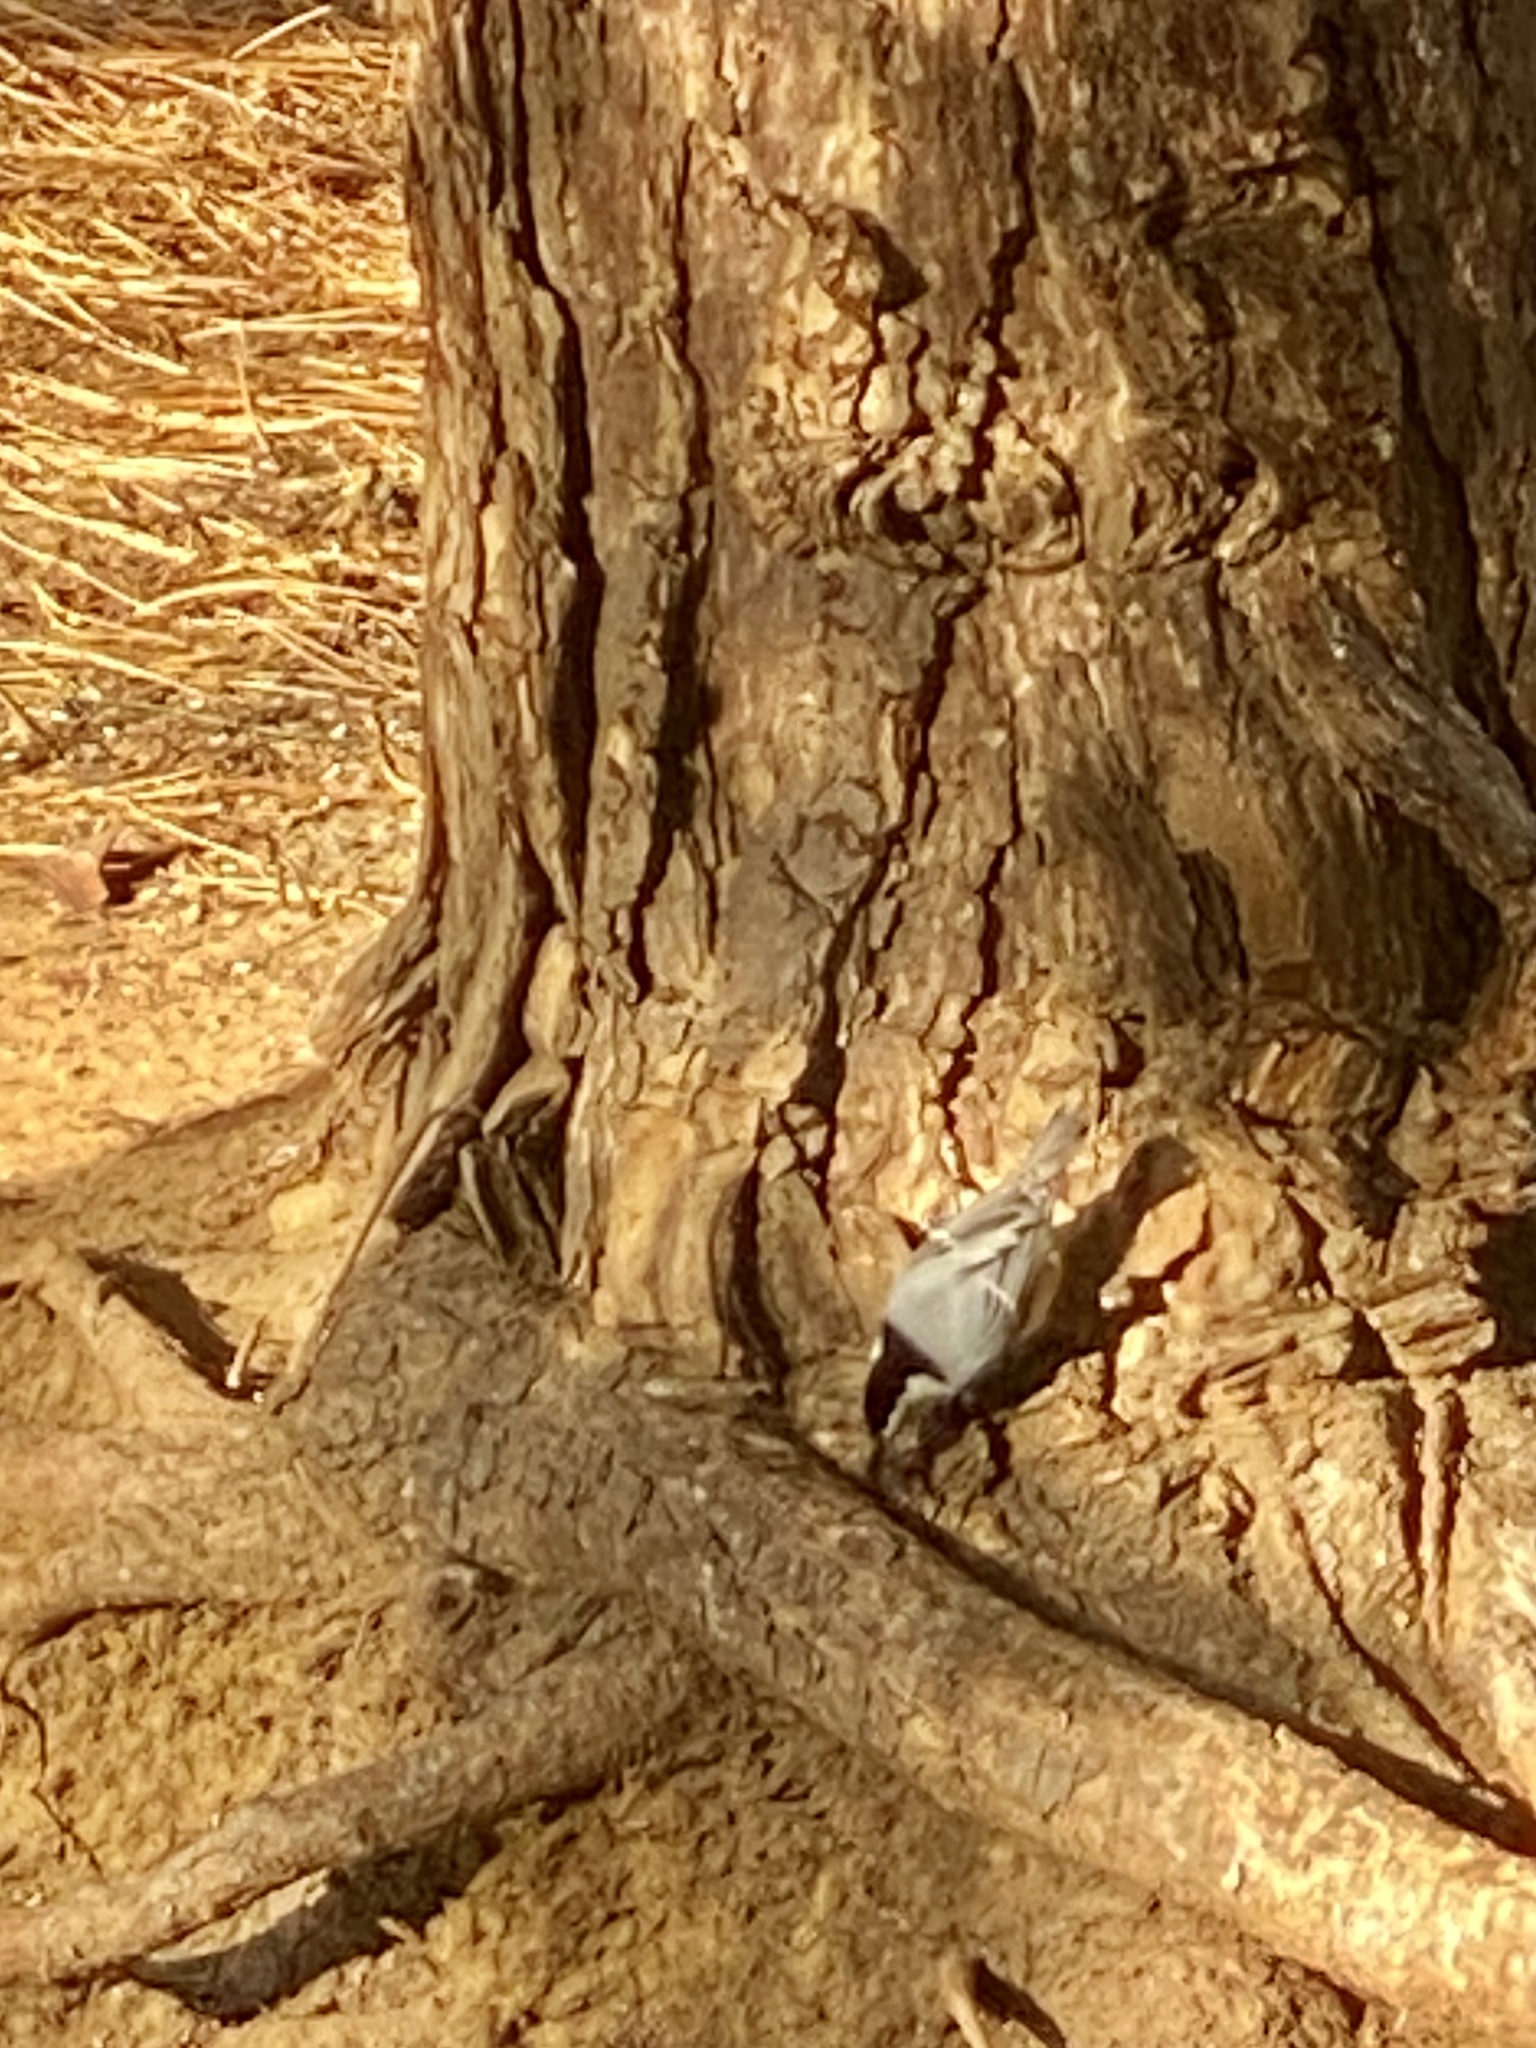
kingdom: Animalia
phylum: Chordata
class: Aves
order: Passeriformes
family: Sittidae
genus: Sitta
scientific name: Sitta carolinensis
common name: White-breasted nuthatch
